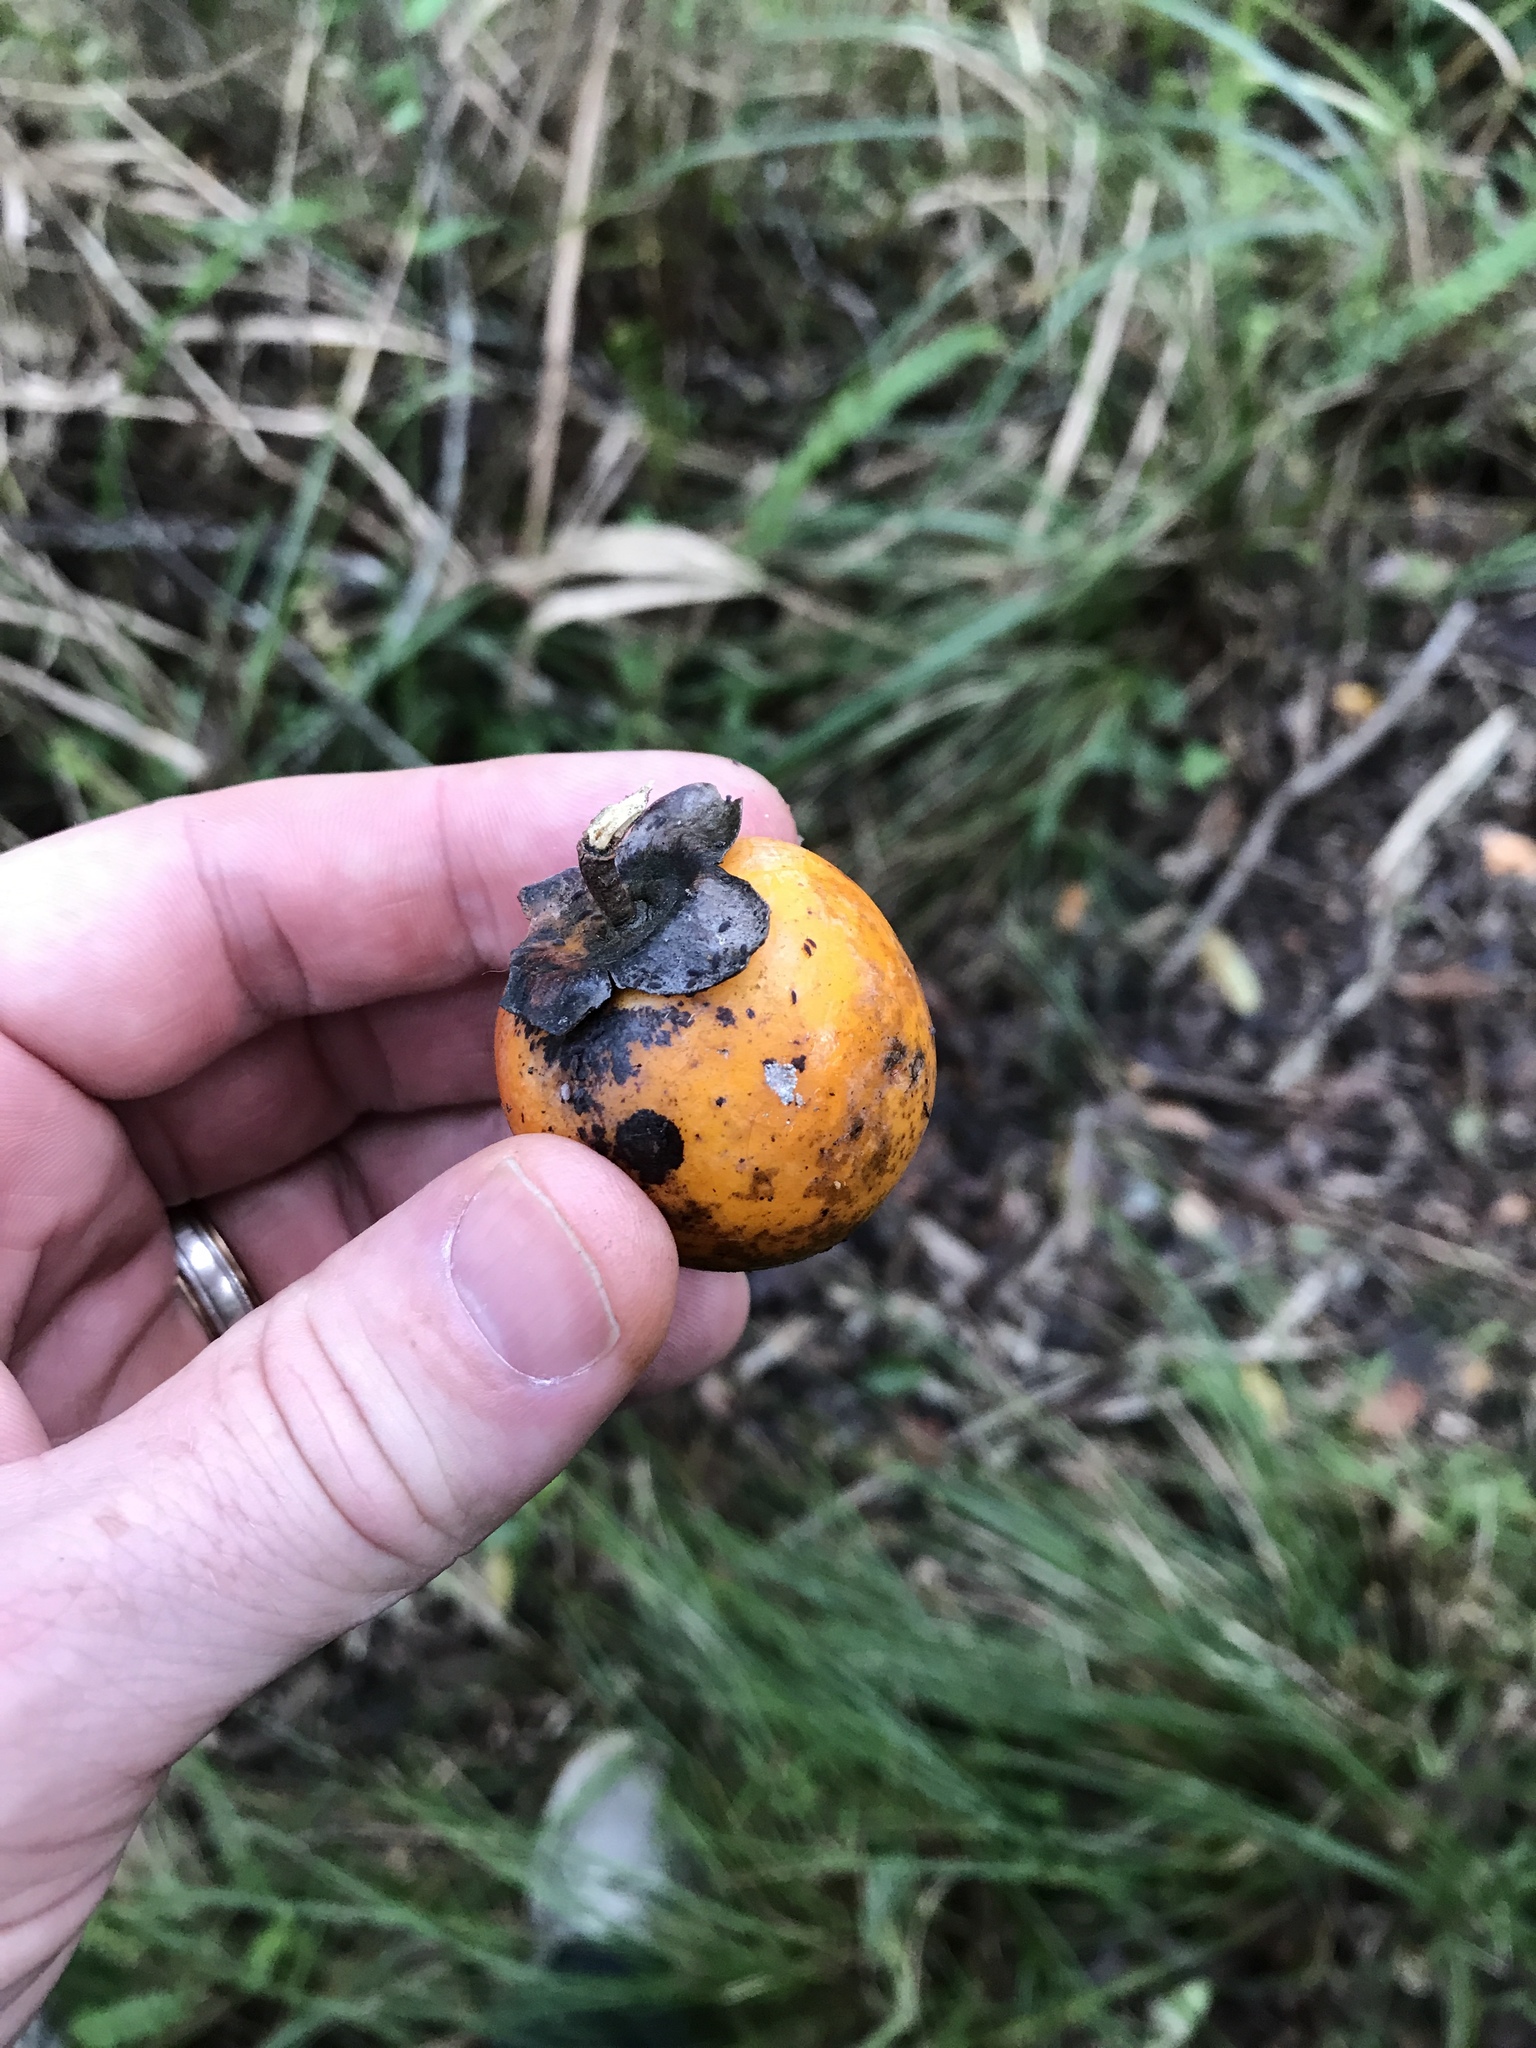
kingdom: Plantae
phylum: Tracheophyta
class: Magnoliopsida
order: Ericales
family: Ebenaceae
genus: Diospyros
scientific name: Diospyros morrisiana
